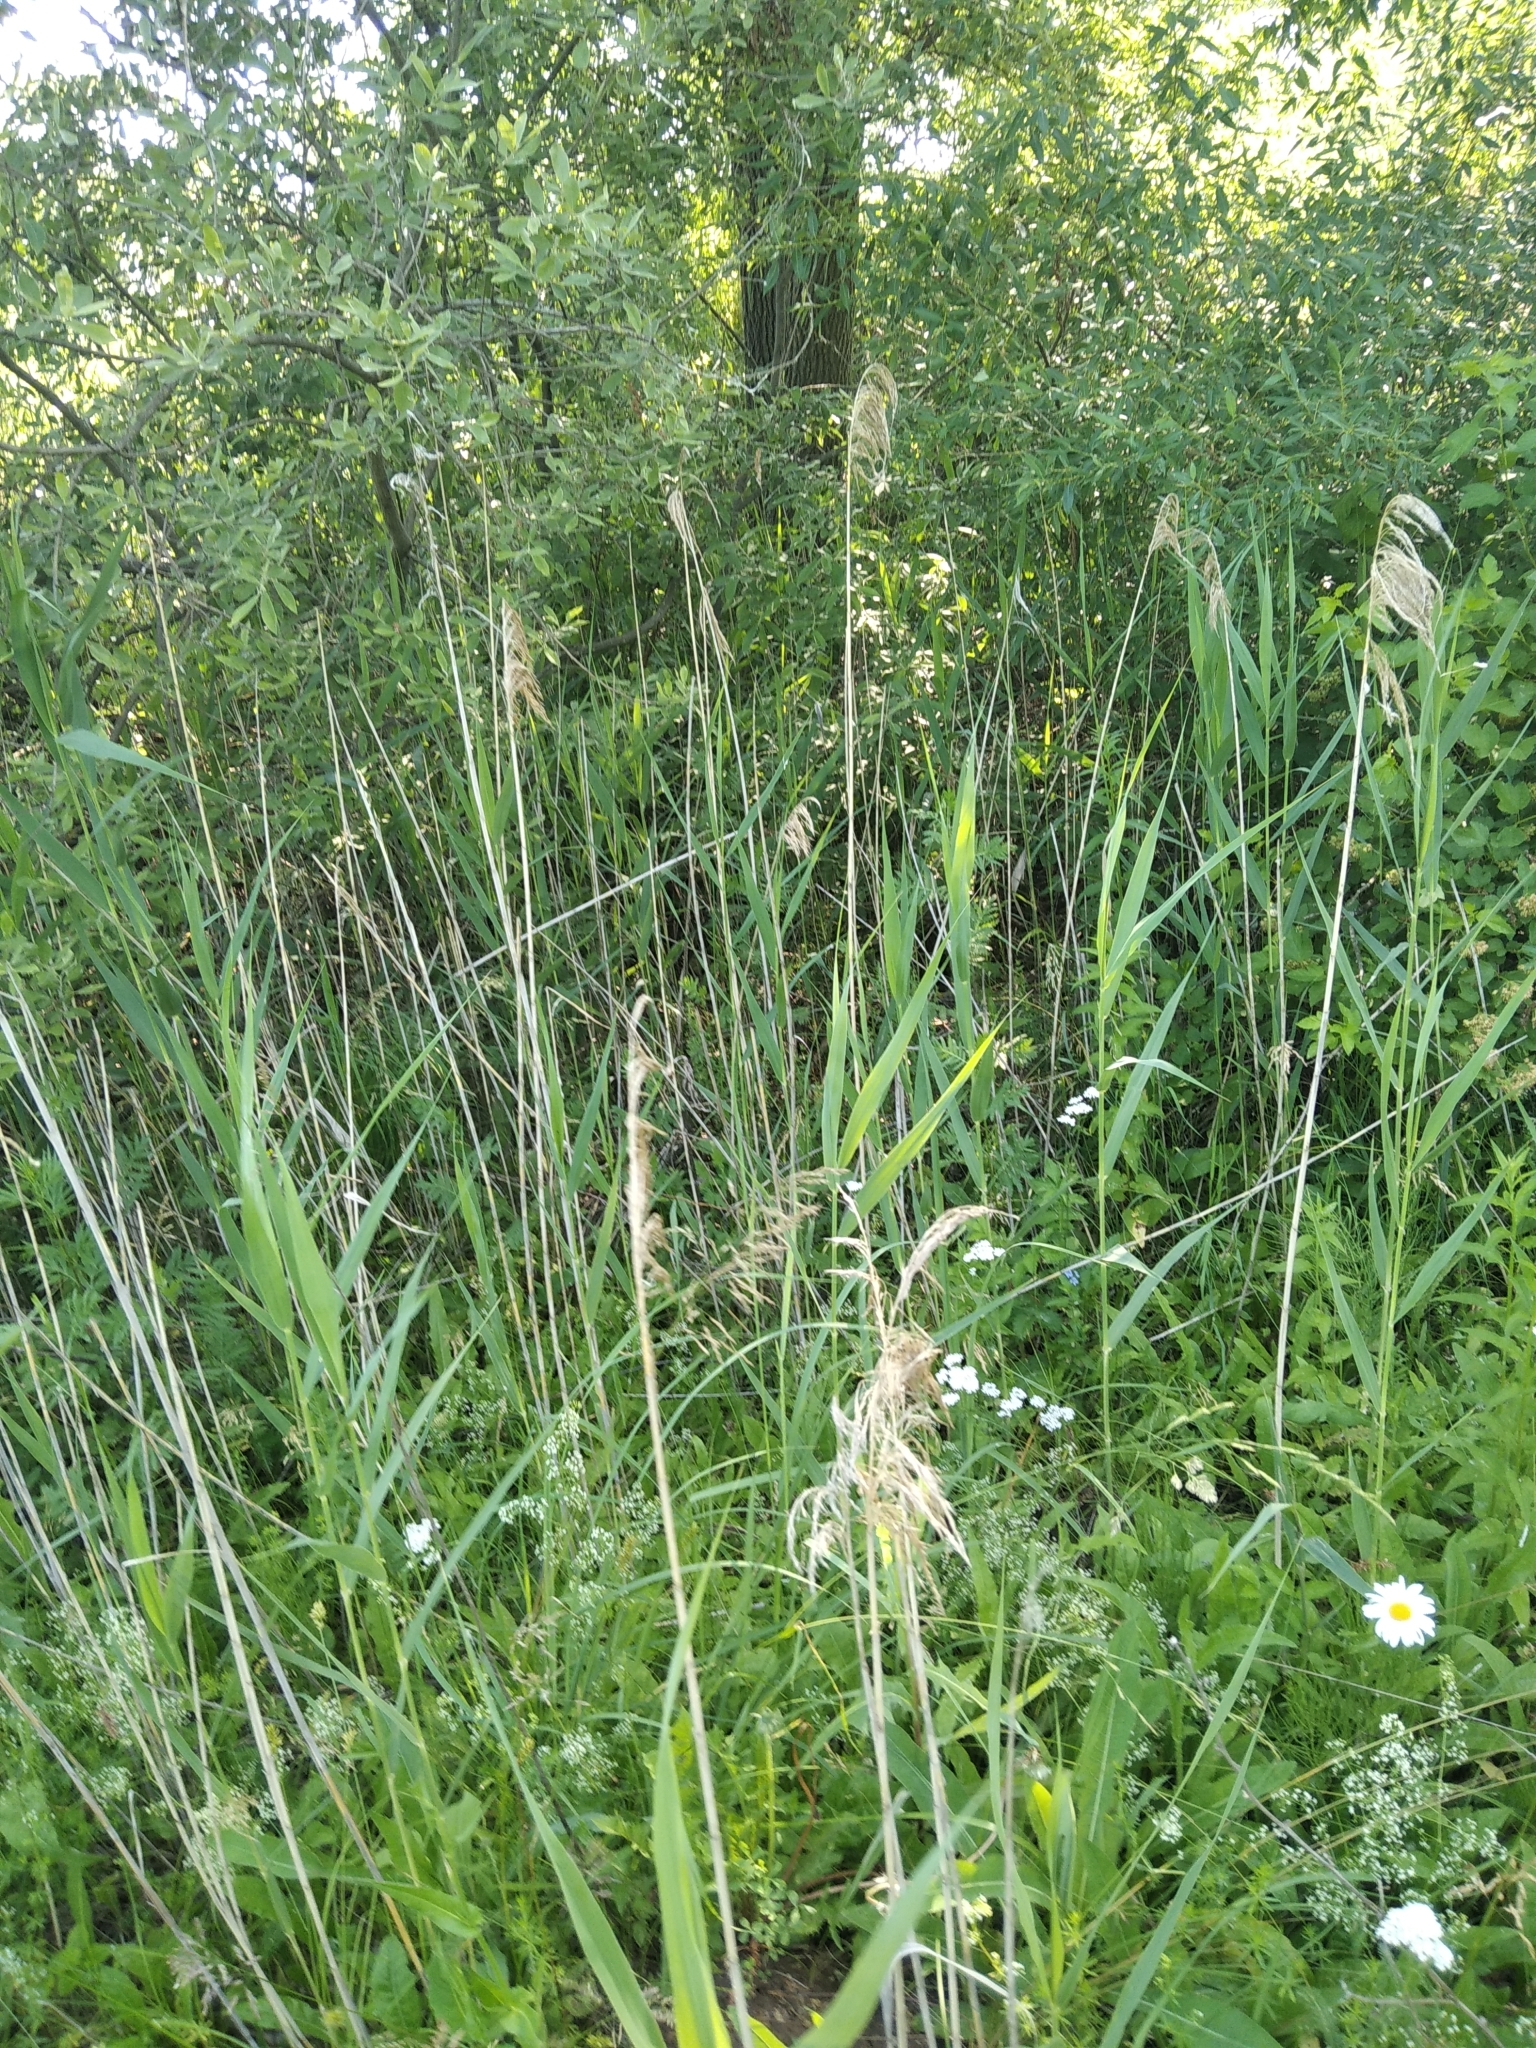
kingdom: Plantae
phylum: Tracheophyta
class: Liliopsida
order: Poales
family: Poaceae
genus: Phragmites
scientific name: Phragmites australis
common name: Common reed
